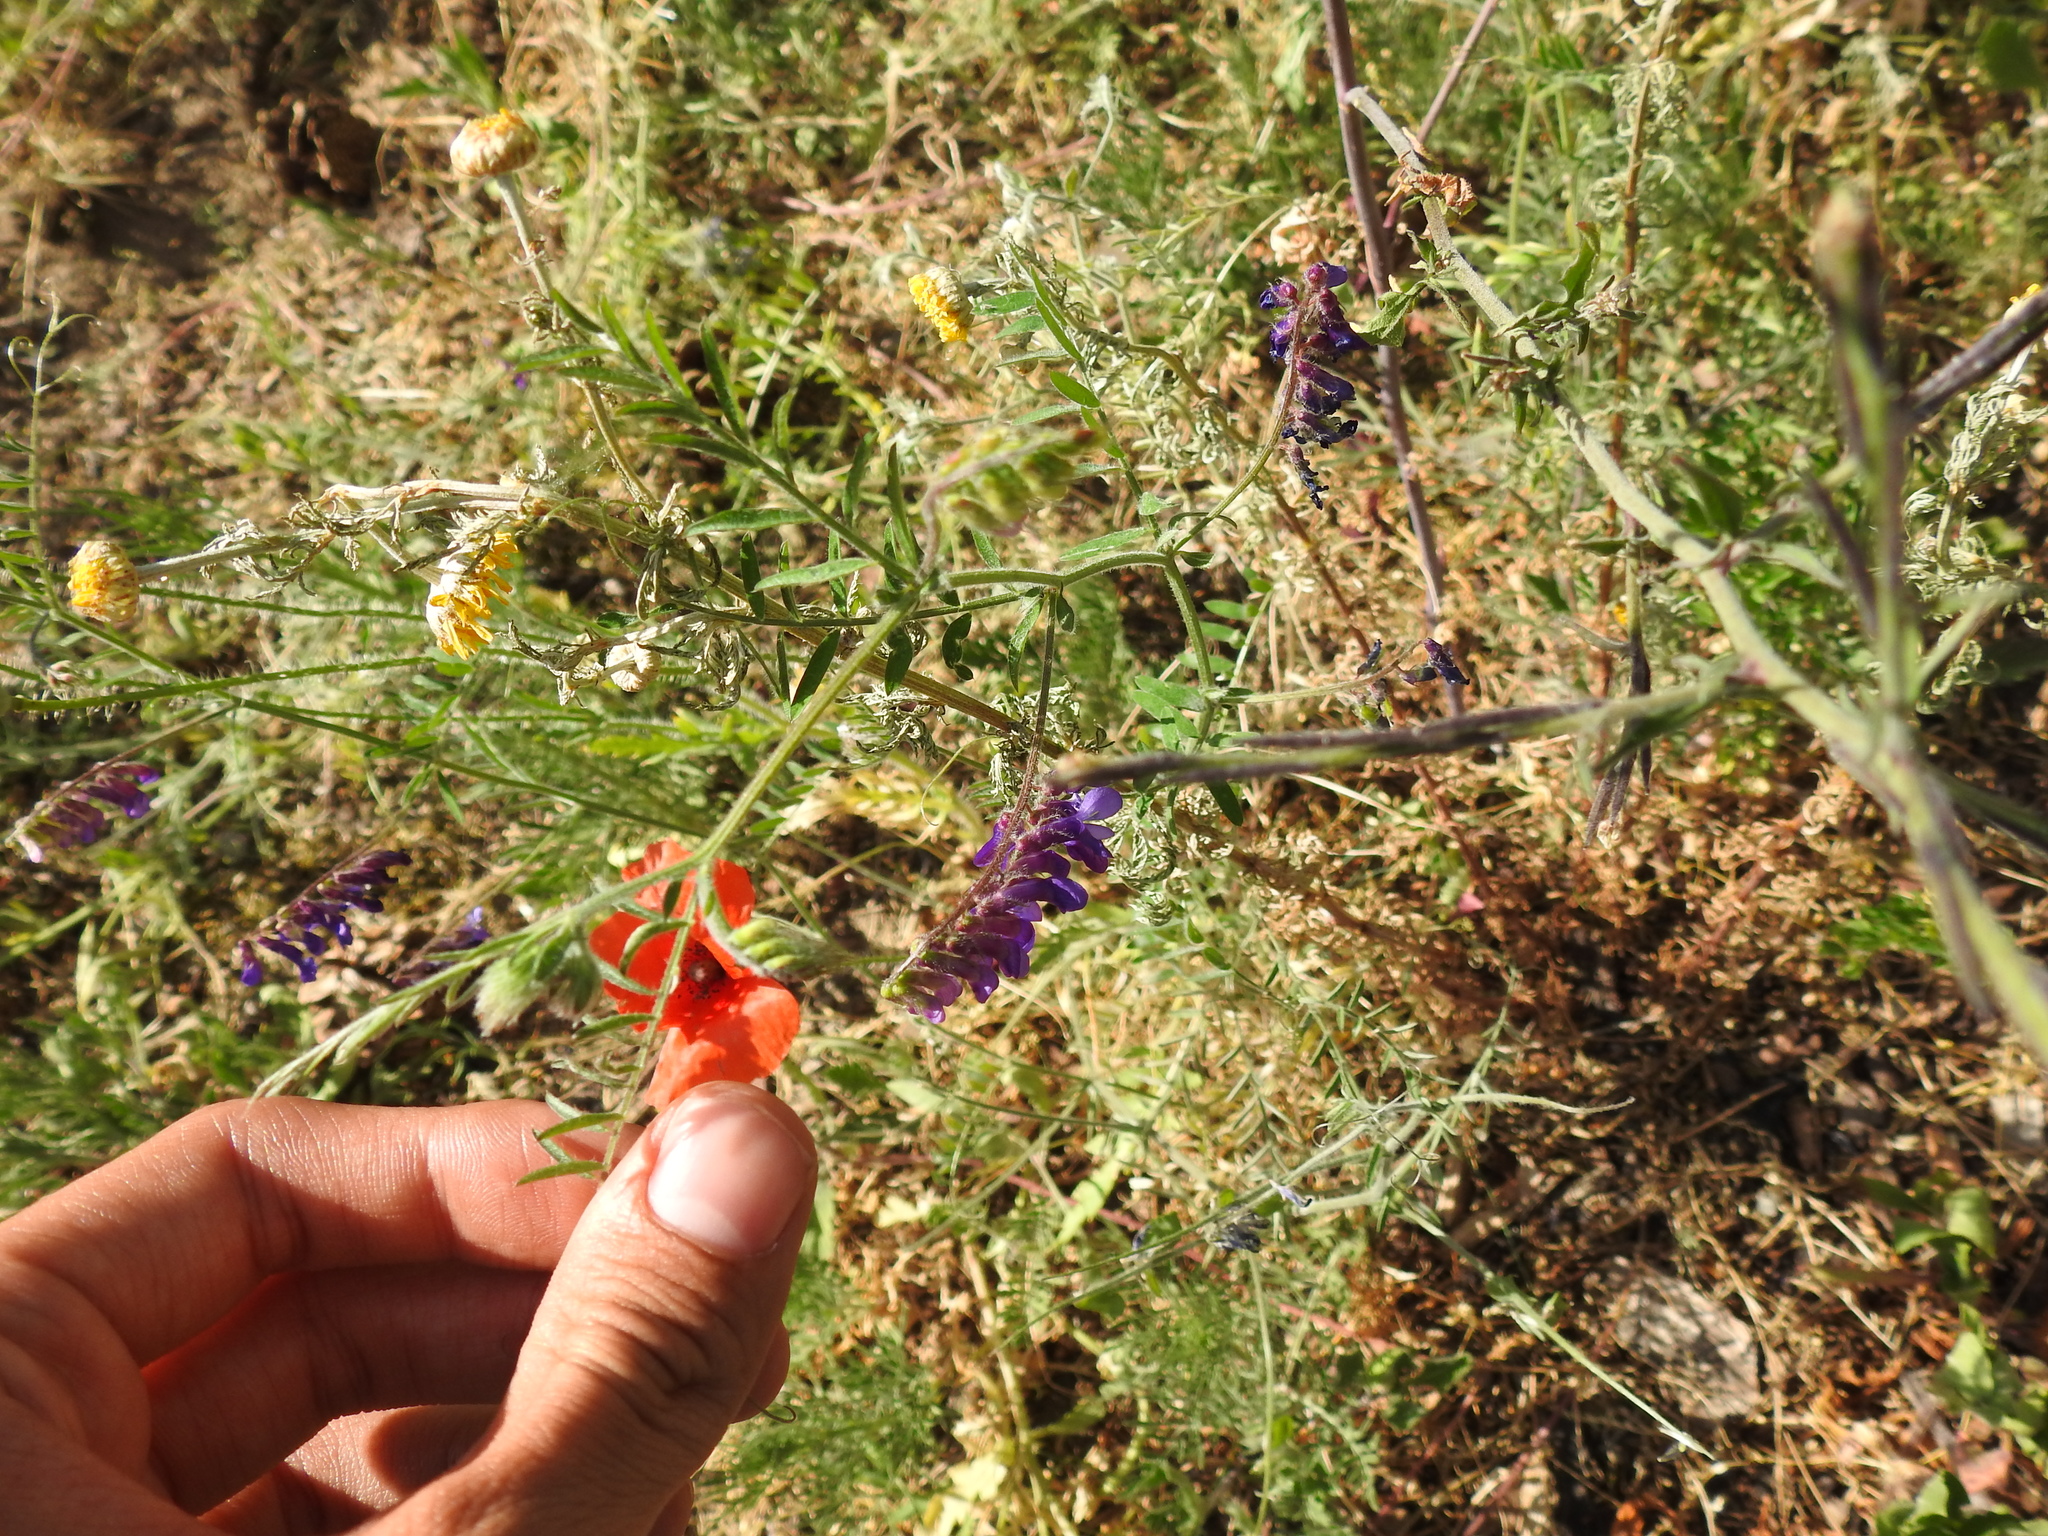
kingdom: Plantae
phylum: Tracheophyta
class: Magnoliopsida
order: Fabales
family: Fabaceae
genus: Vicia
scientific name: Vicia villosa
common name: Fodder vetch
